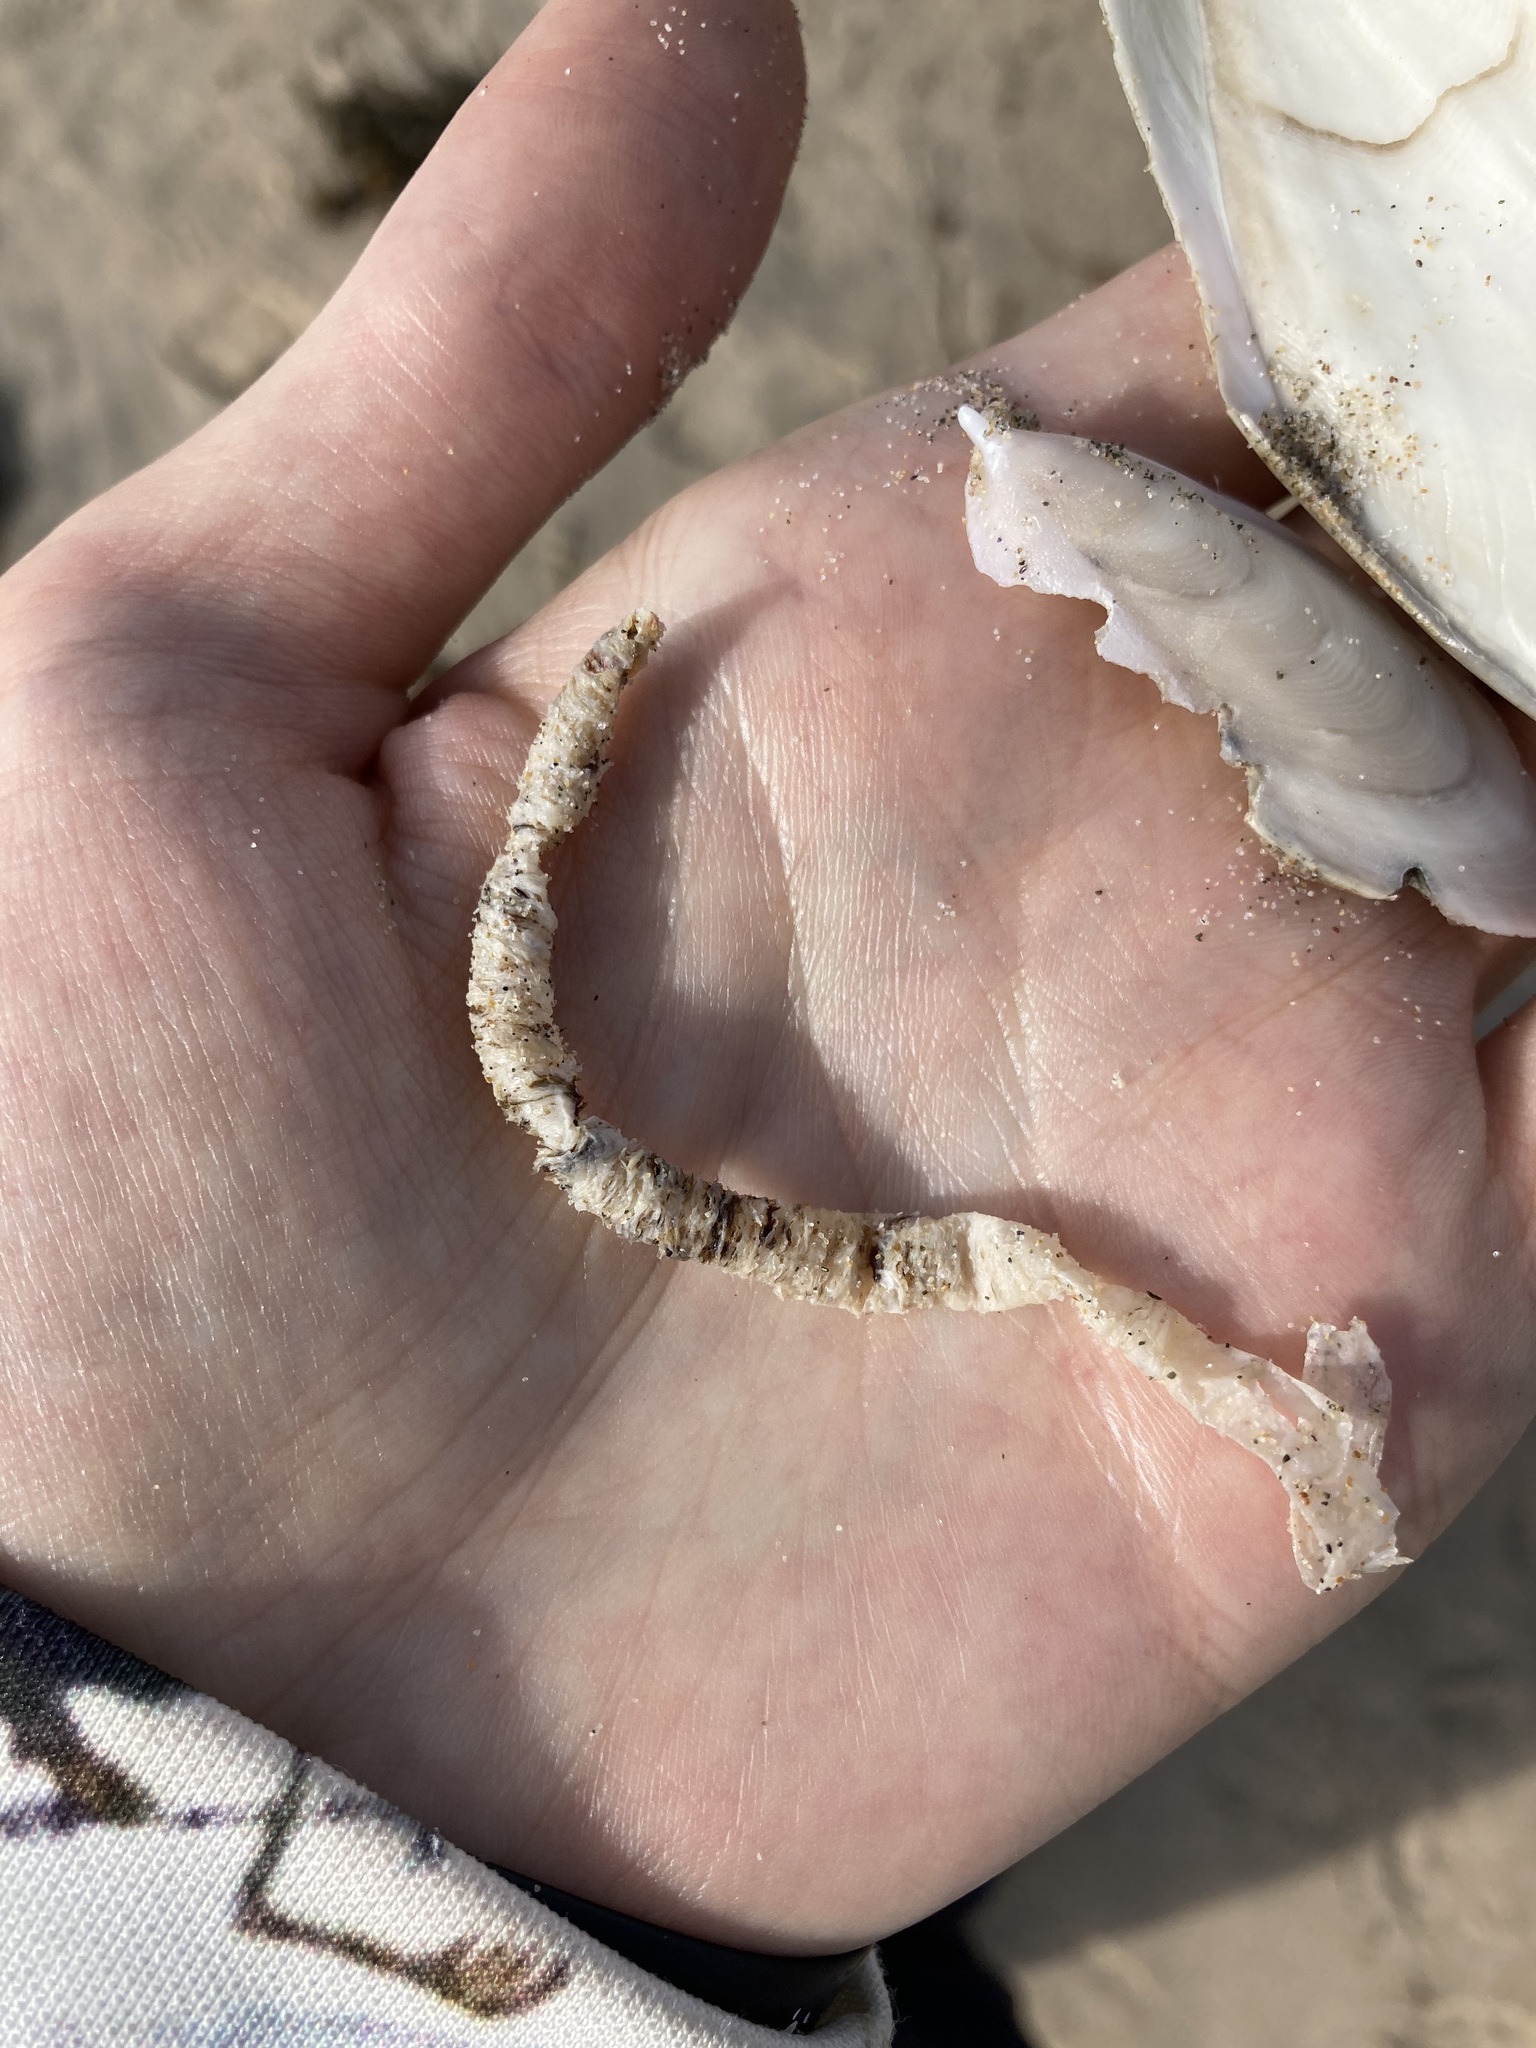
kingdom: Animalia
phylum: Annelida
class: Polychaeta
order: Eunicida
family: Onuphidae
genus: Diopatra
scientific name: Diopatra dentata
